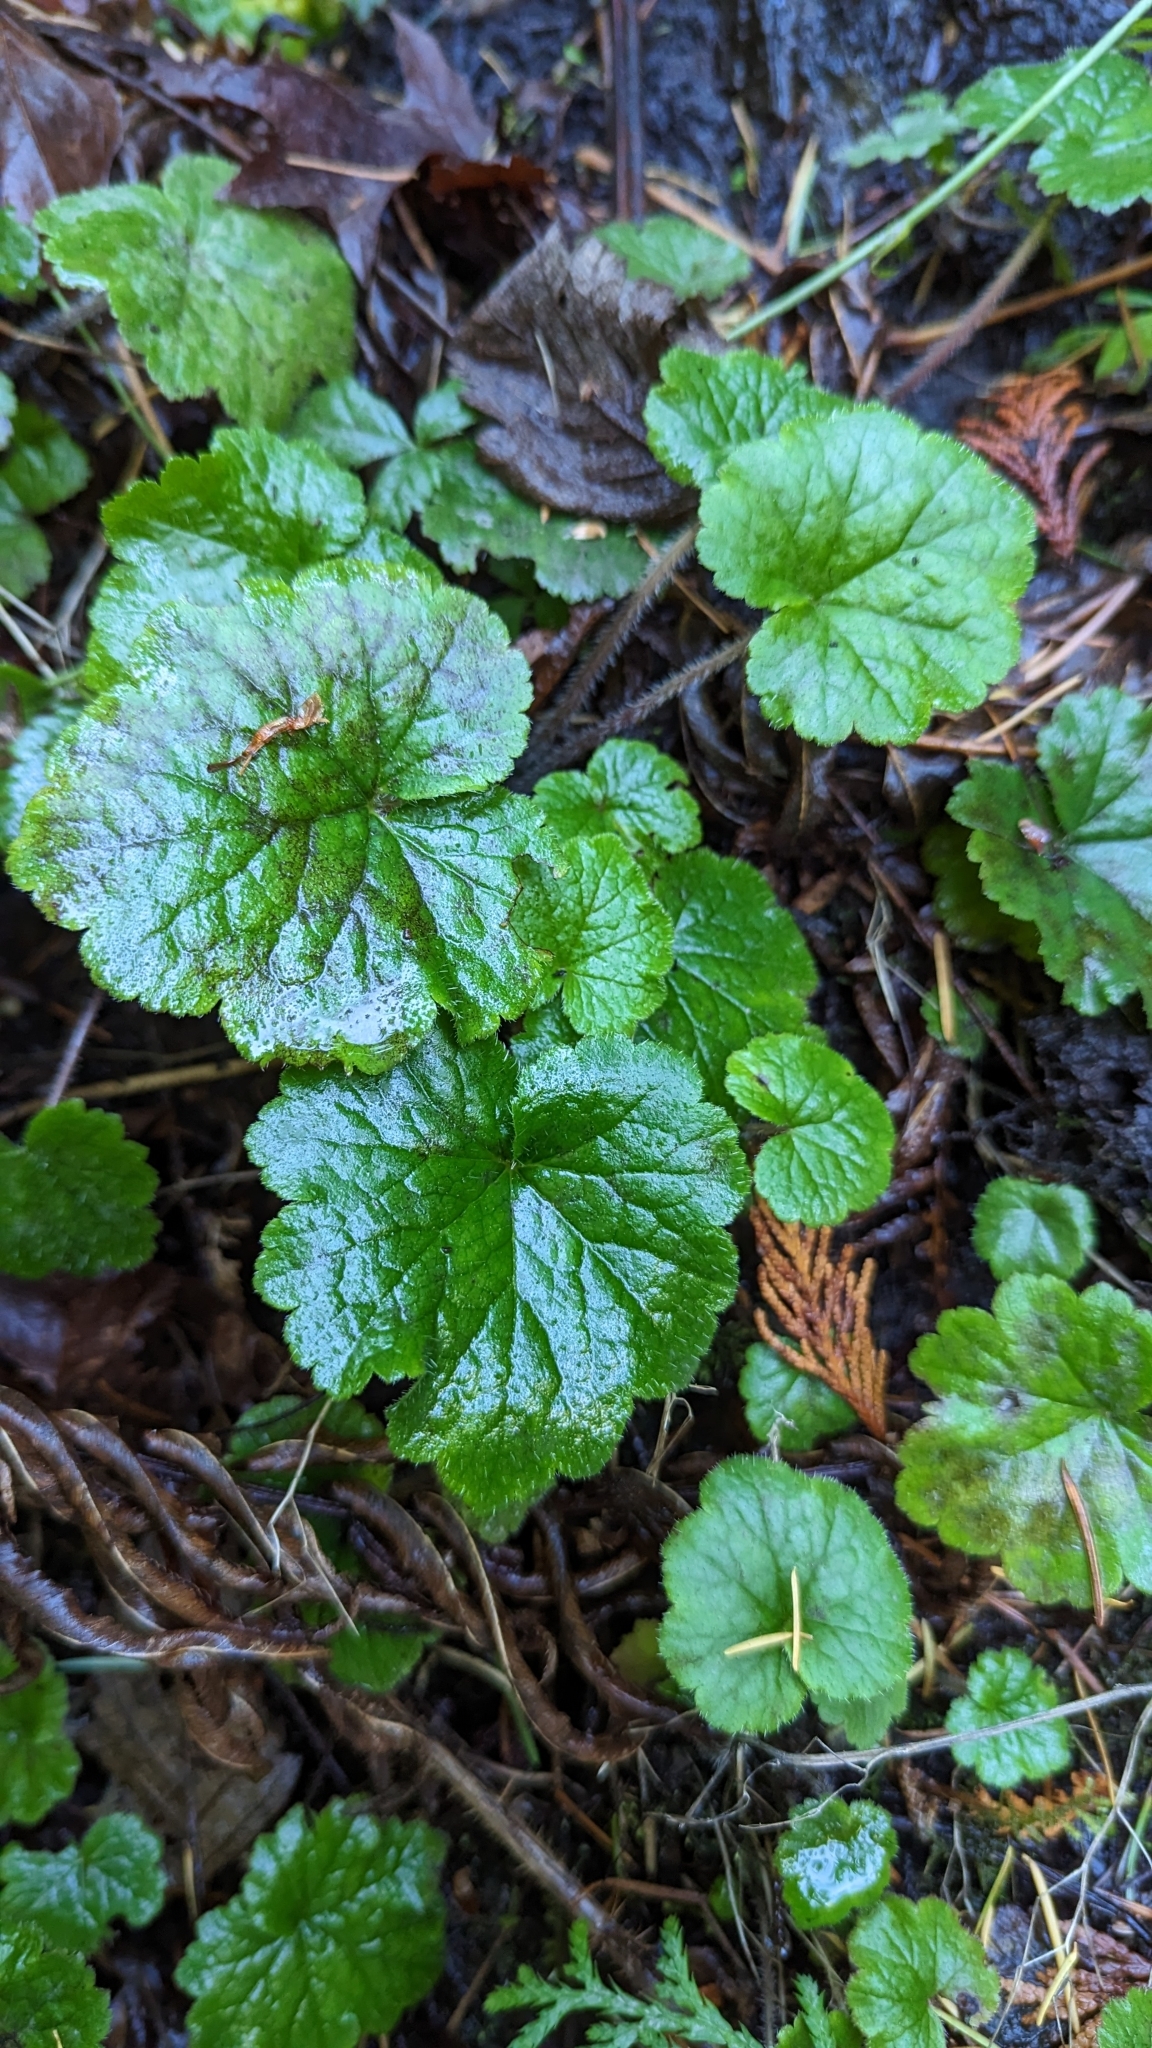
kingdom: Plantae
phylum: Tracheophyta
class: Magnoliopsida
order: Saxifragales
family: Saxifragaceae
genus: Tellima
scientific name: Tellima grandiflora
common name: Fringecups
